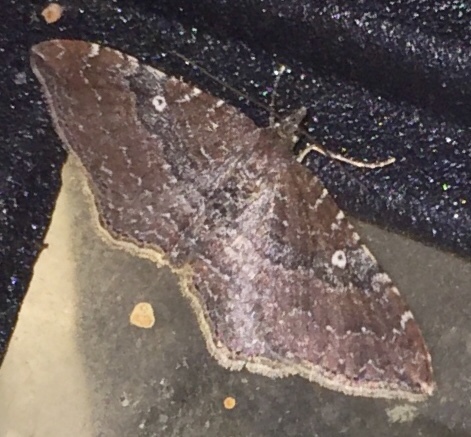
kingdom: Animalia
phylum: Arthropoda
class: Insecta
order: Lepidoptera
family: Geometridae
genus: Orthonama
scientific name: Orthonama obstipata
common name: The gem
